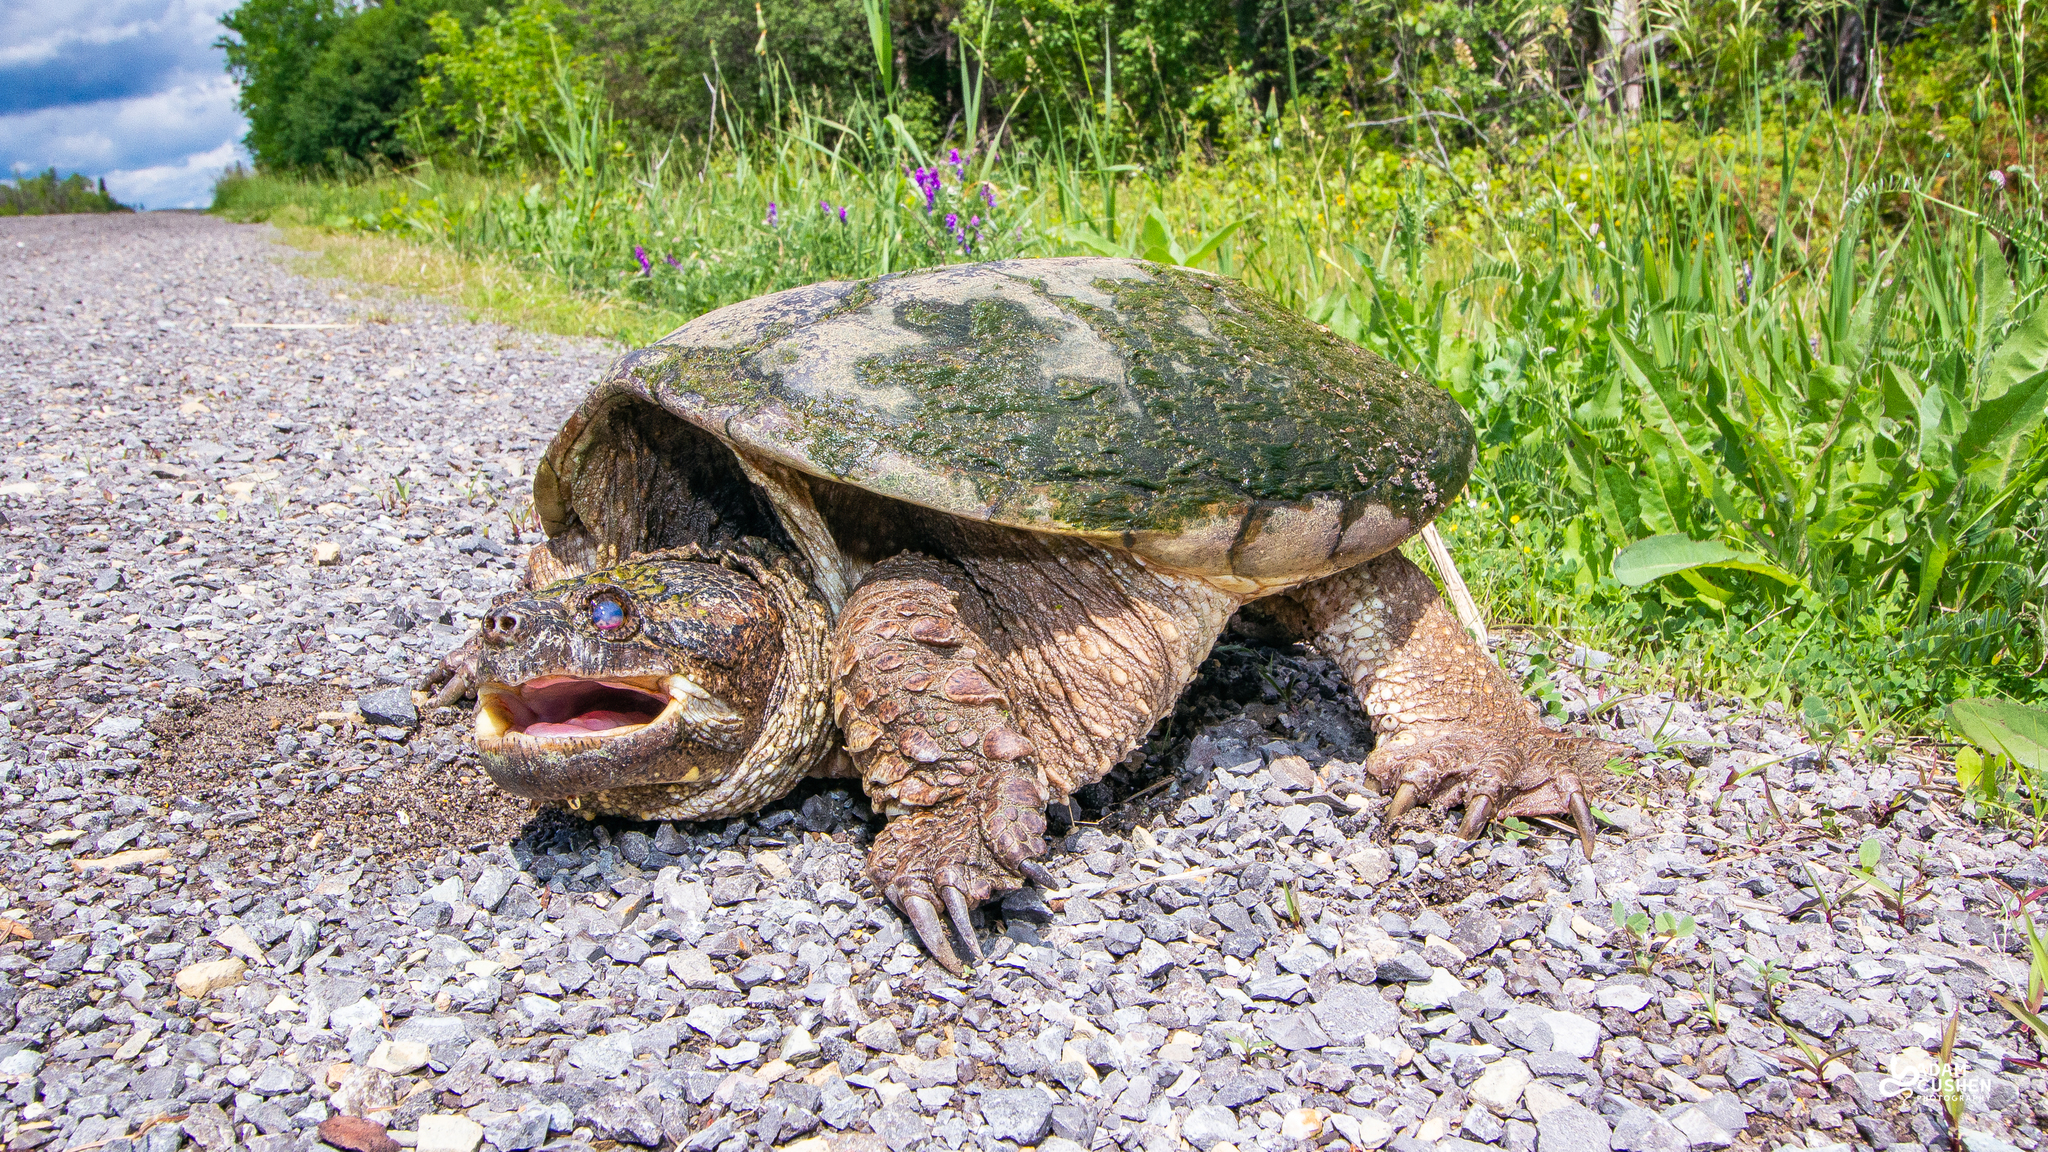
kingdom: Animalia
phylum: Chordata
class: Testudines
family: Chelydridae
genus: Chelydra
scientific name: Chelydra serpentina
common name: Common snapping turtle
